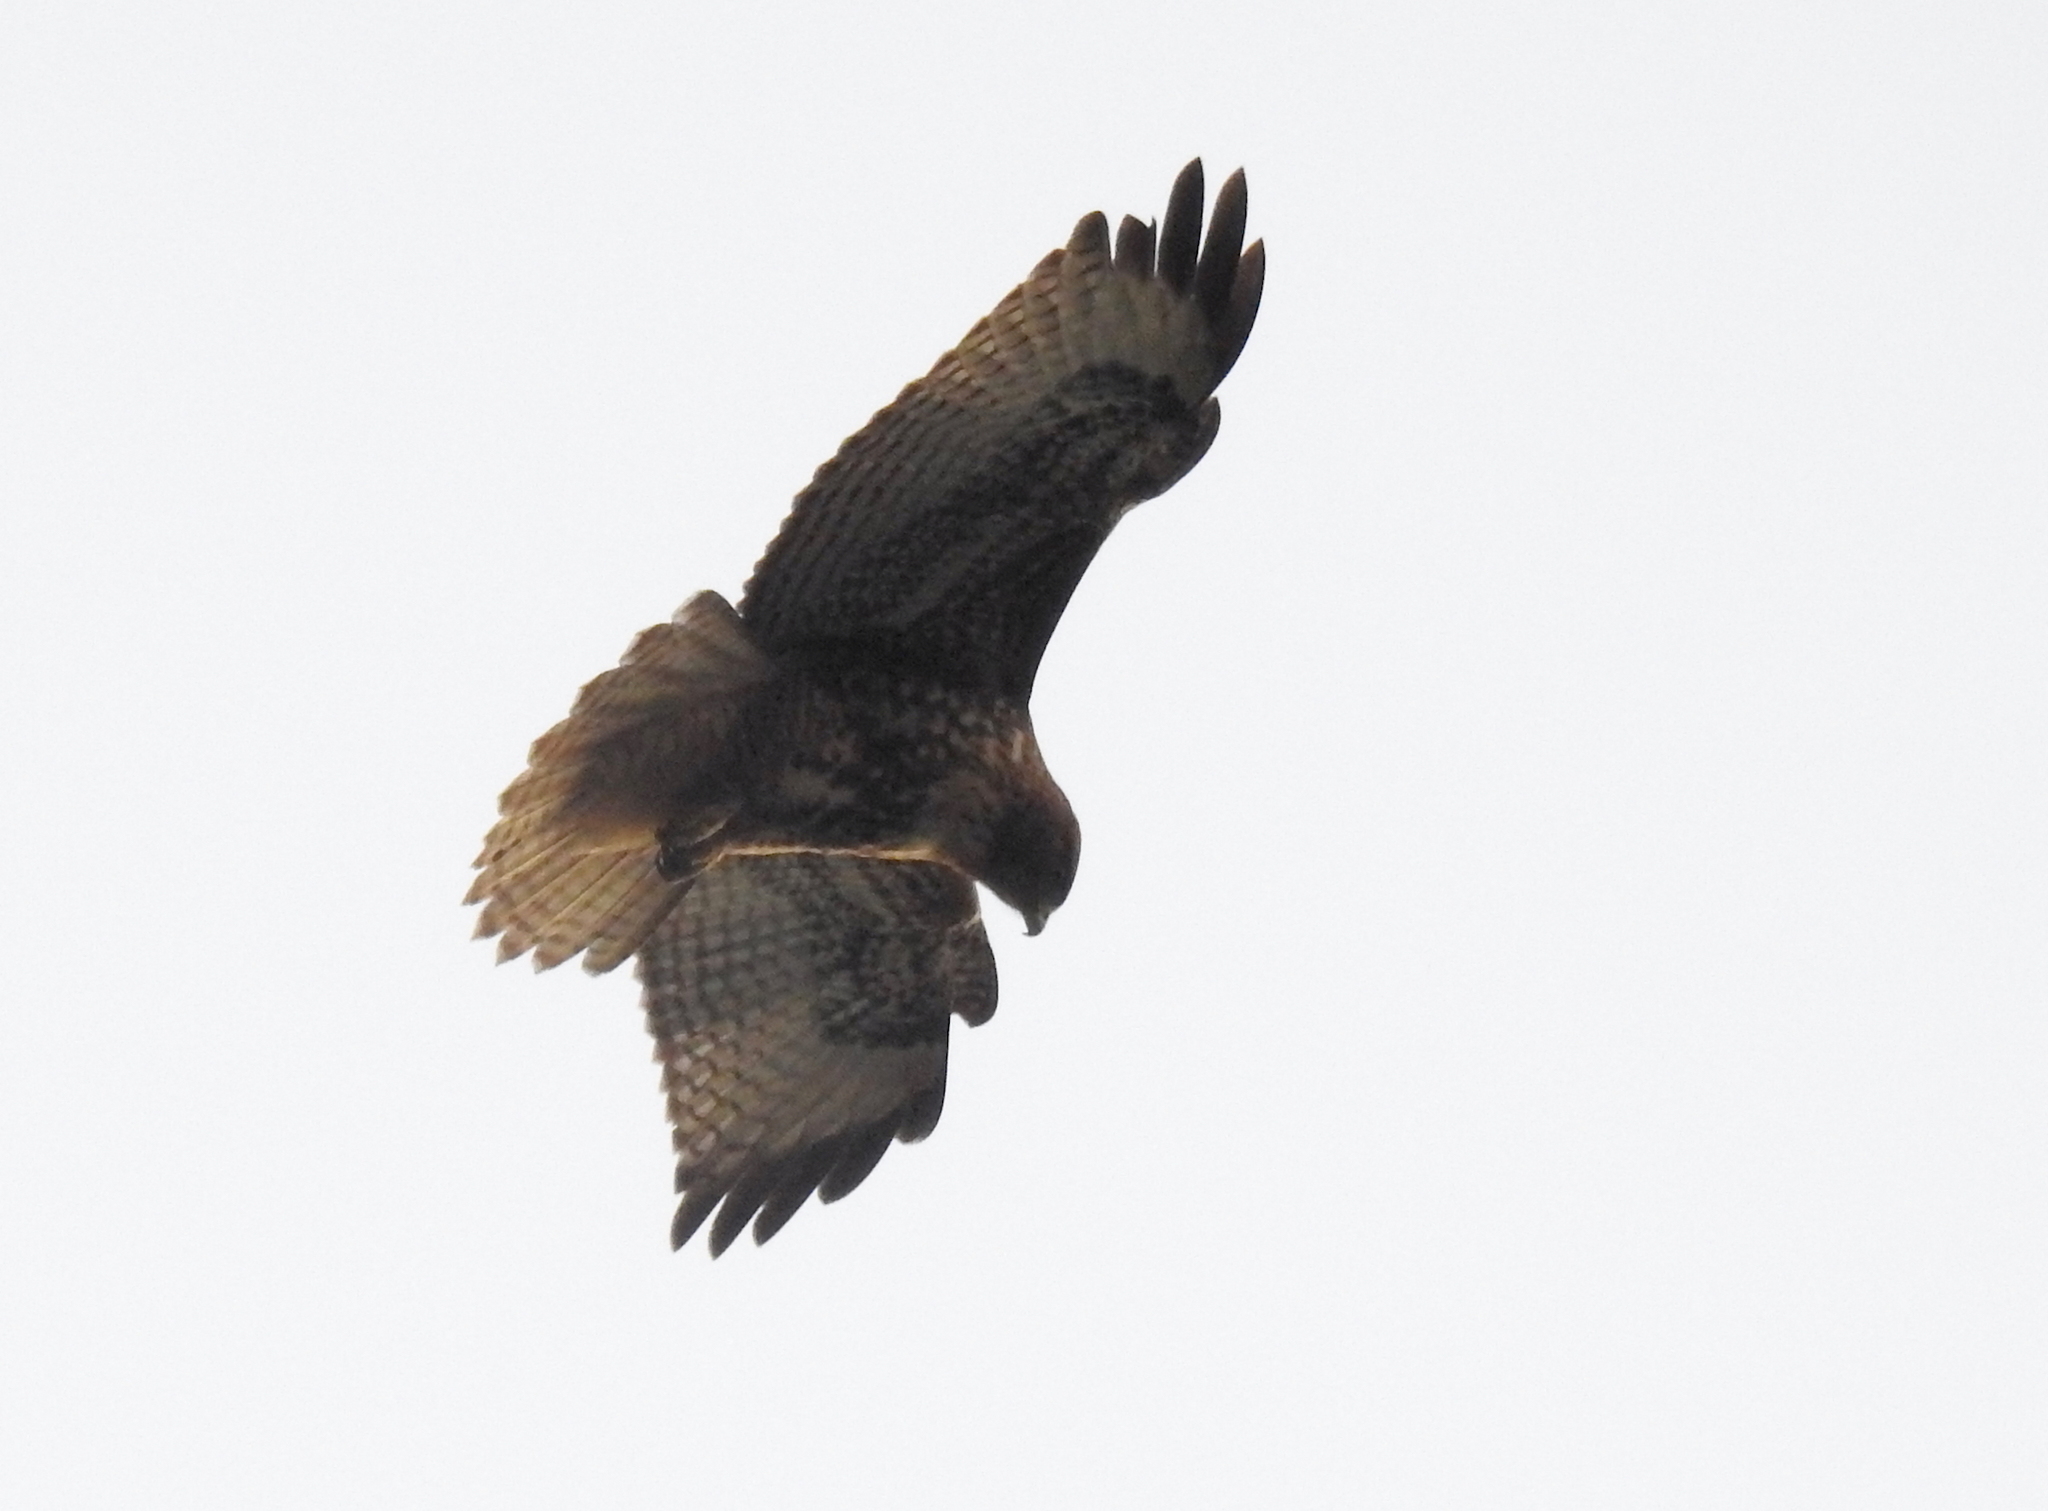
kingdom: Animalia
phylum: Chordata
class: Aves
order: Accipitriformes
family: Accipitridae
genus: Buteo
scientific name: Buteo jamaicensis
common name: Red-tailed hawk
